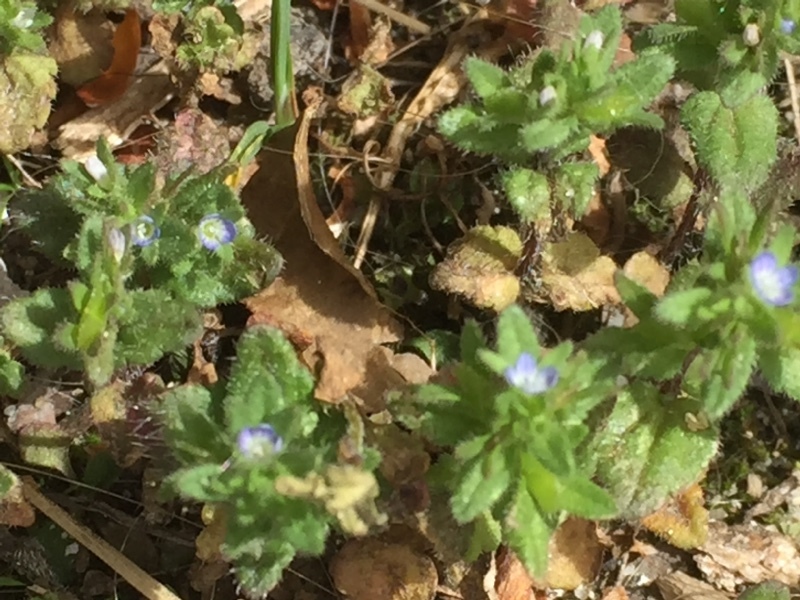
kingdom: Plantae
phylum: Tracheophyta
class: Magnoliopsida
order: Lamiales
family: Plantaginaceae
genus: Veronica
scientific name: Veronica arvensis
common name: Corn speedwell
